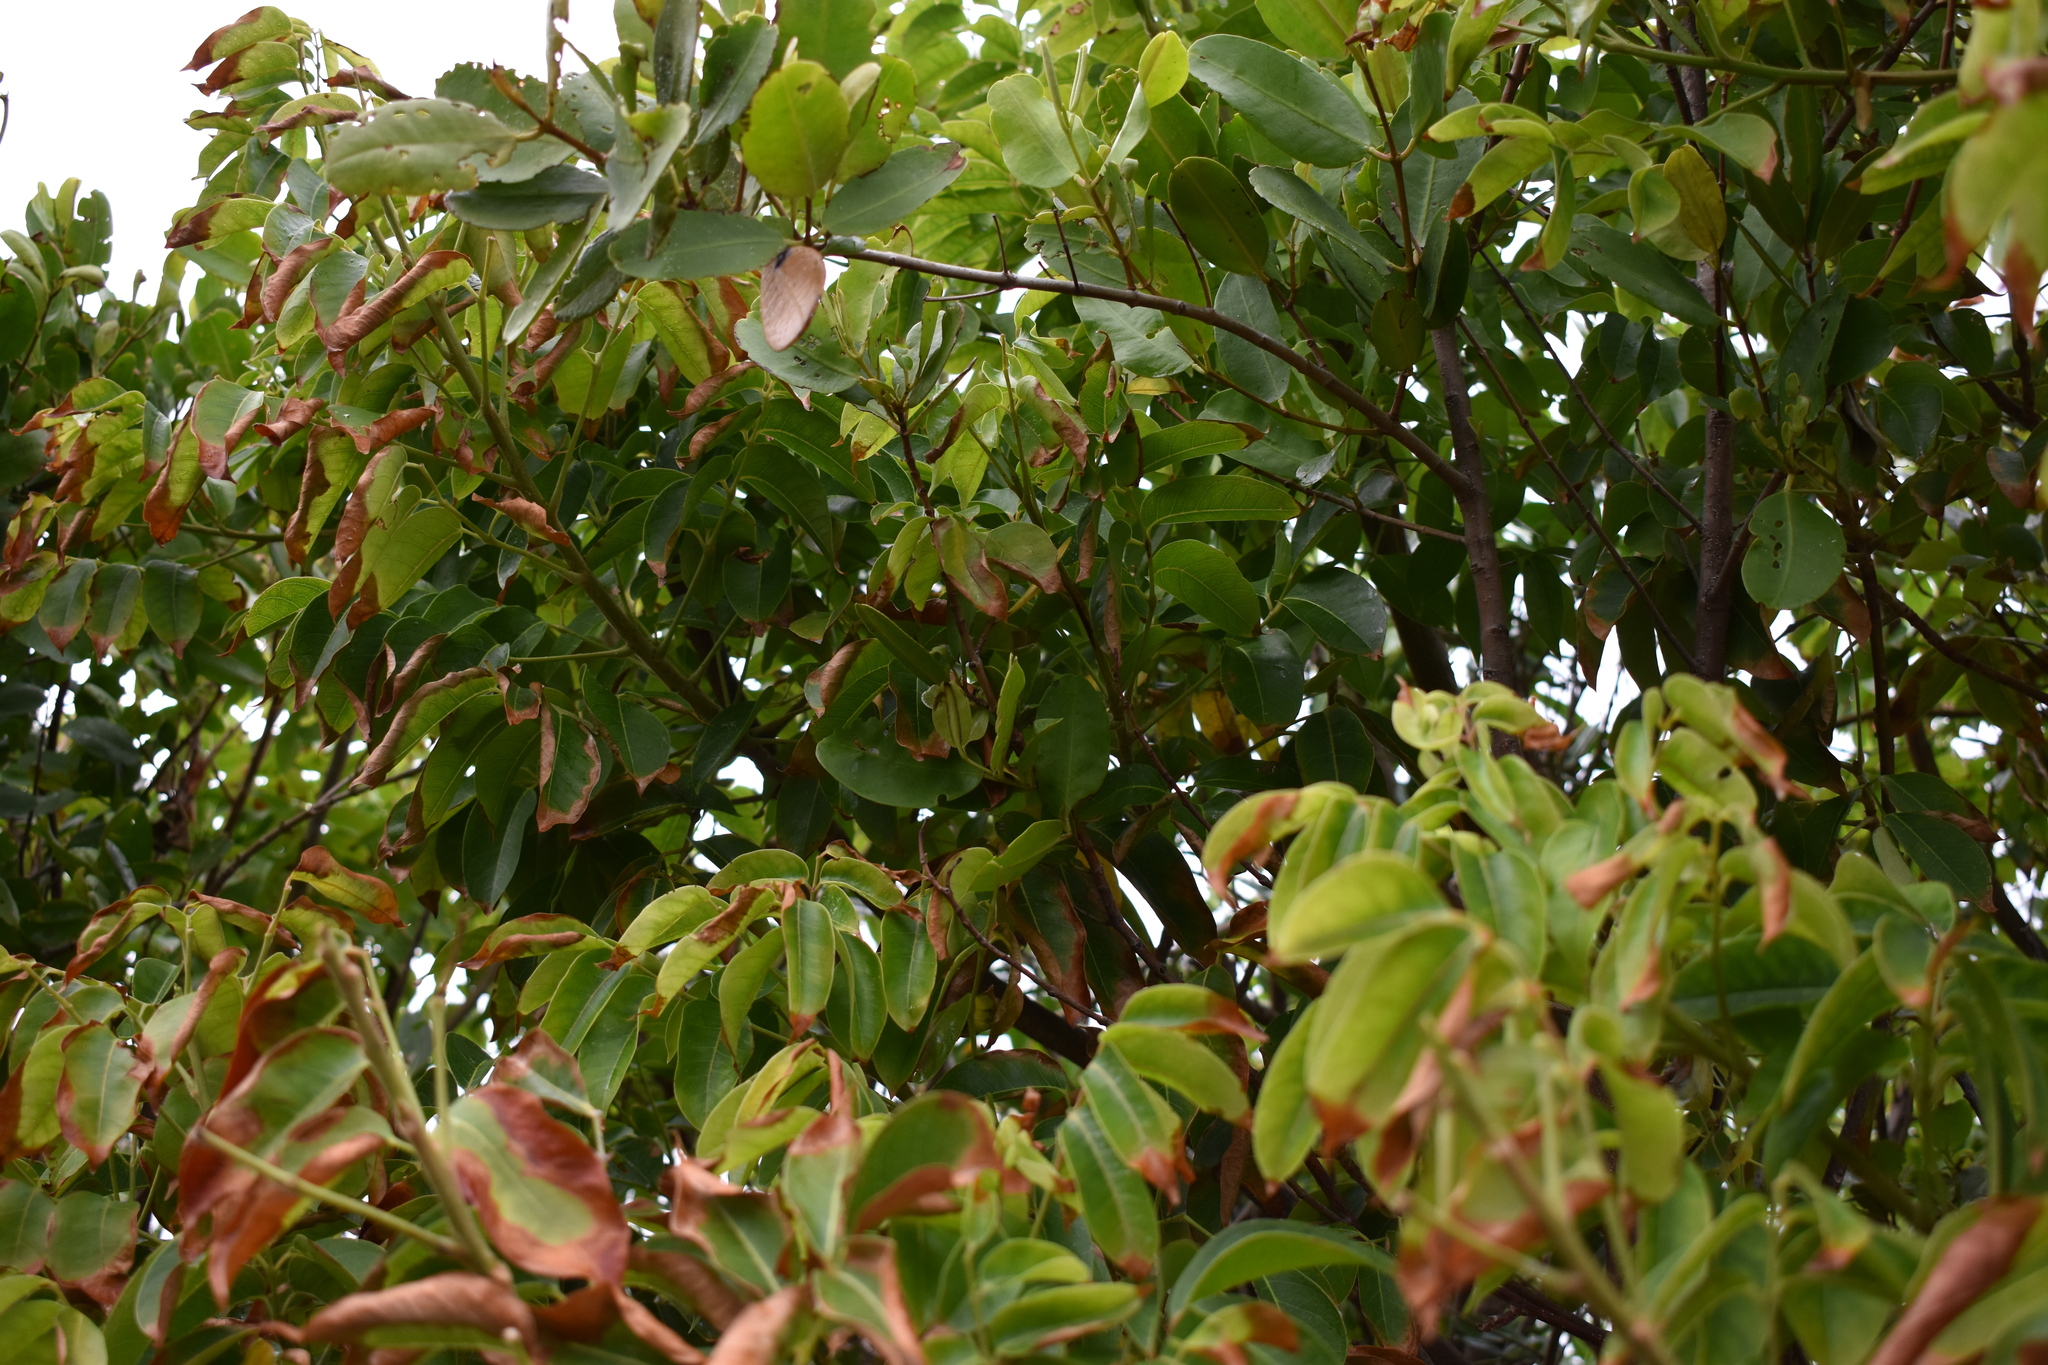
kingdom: Plantae
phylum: Tracheophyta
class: Magnoliopsida
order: Sapindales
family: Burseraceae
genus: Bursera
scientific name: Bursera simaruba
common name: Turpentine tree
